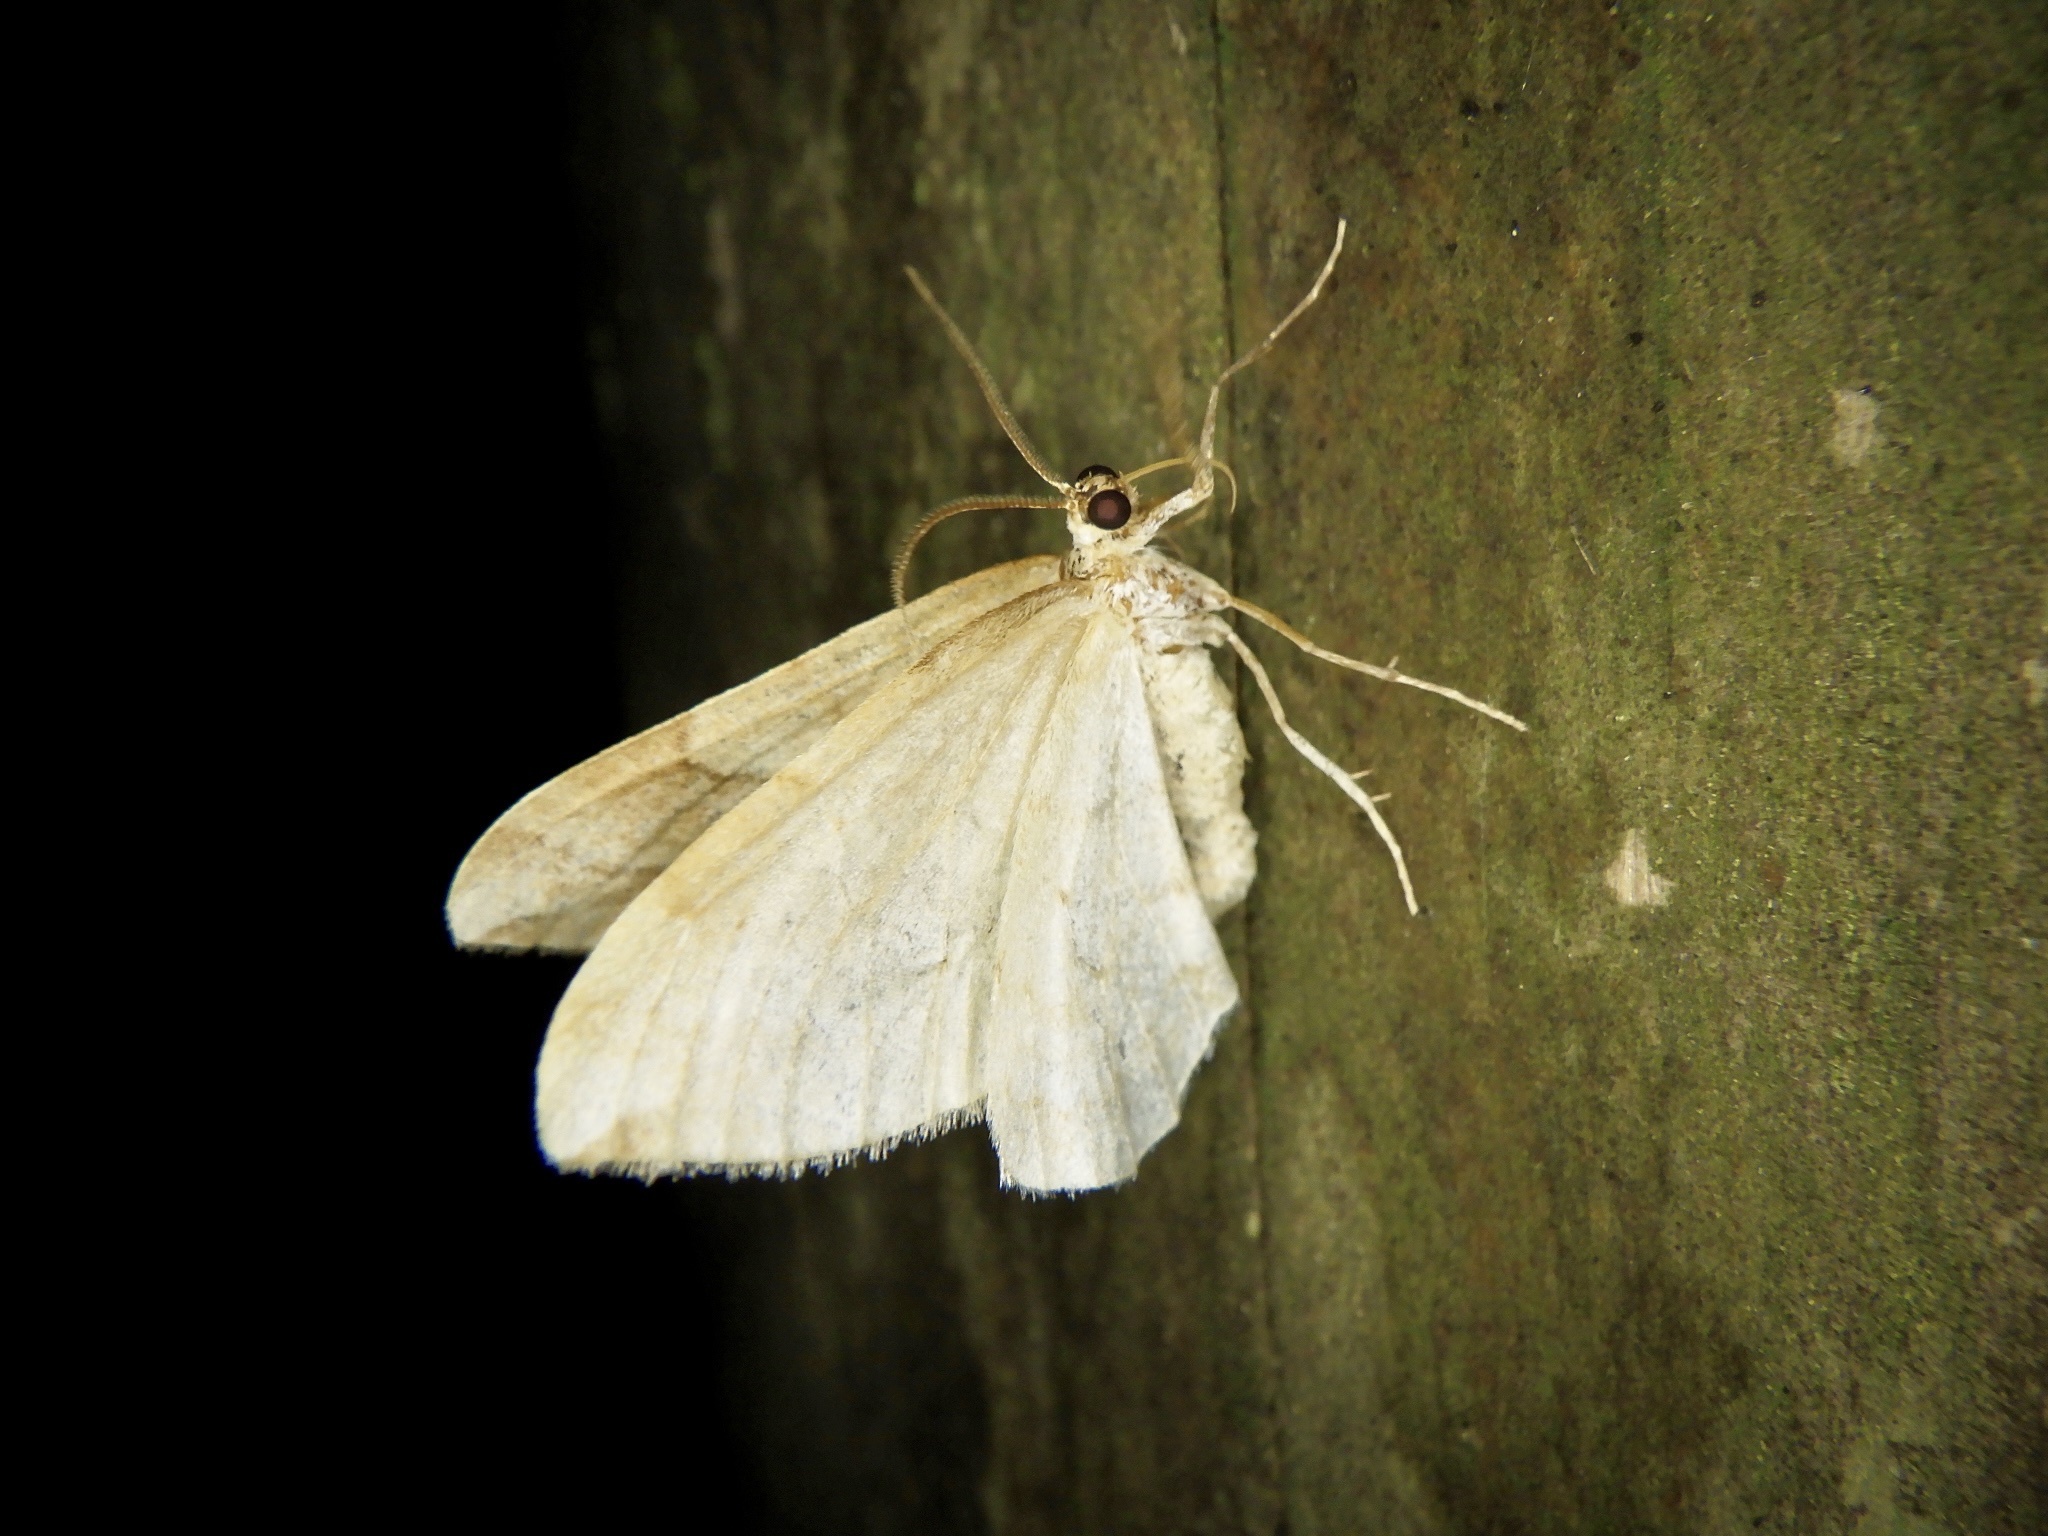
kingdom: Animalia
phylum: Arthropoda
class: Insecta
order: Lepidoptera
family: Geometridae
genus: Nothoporinia
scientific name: Nothoporinia mediolineata
